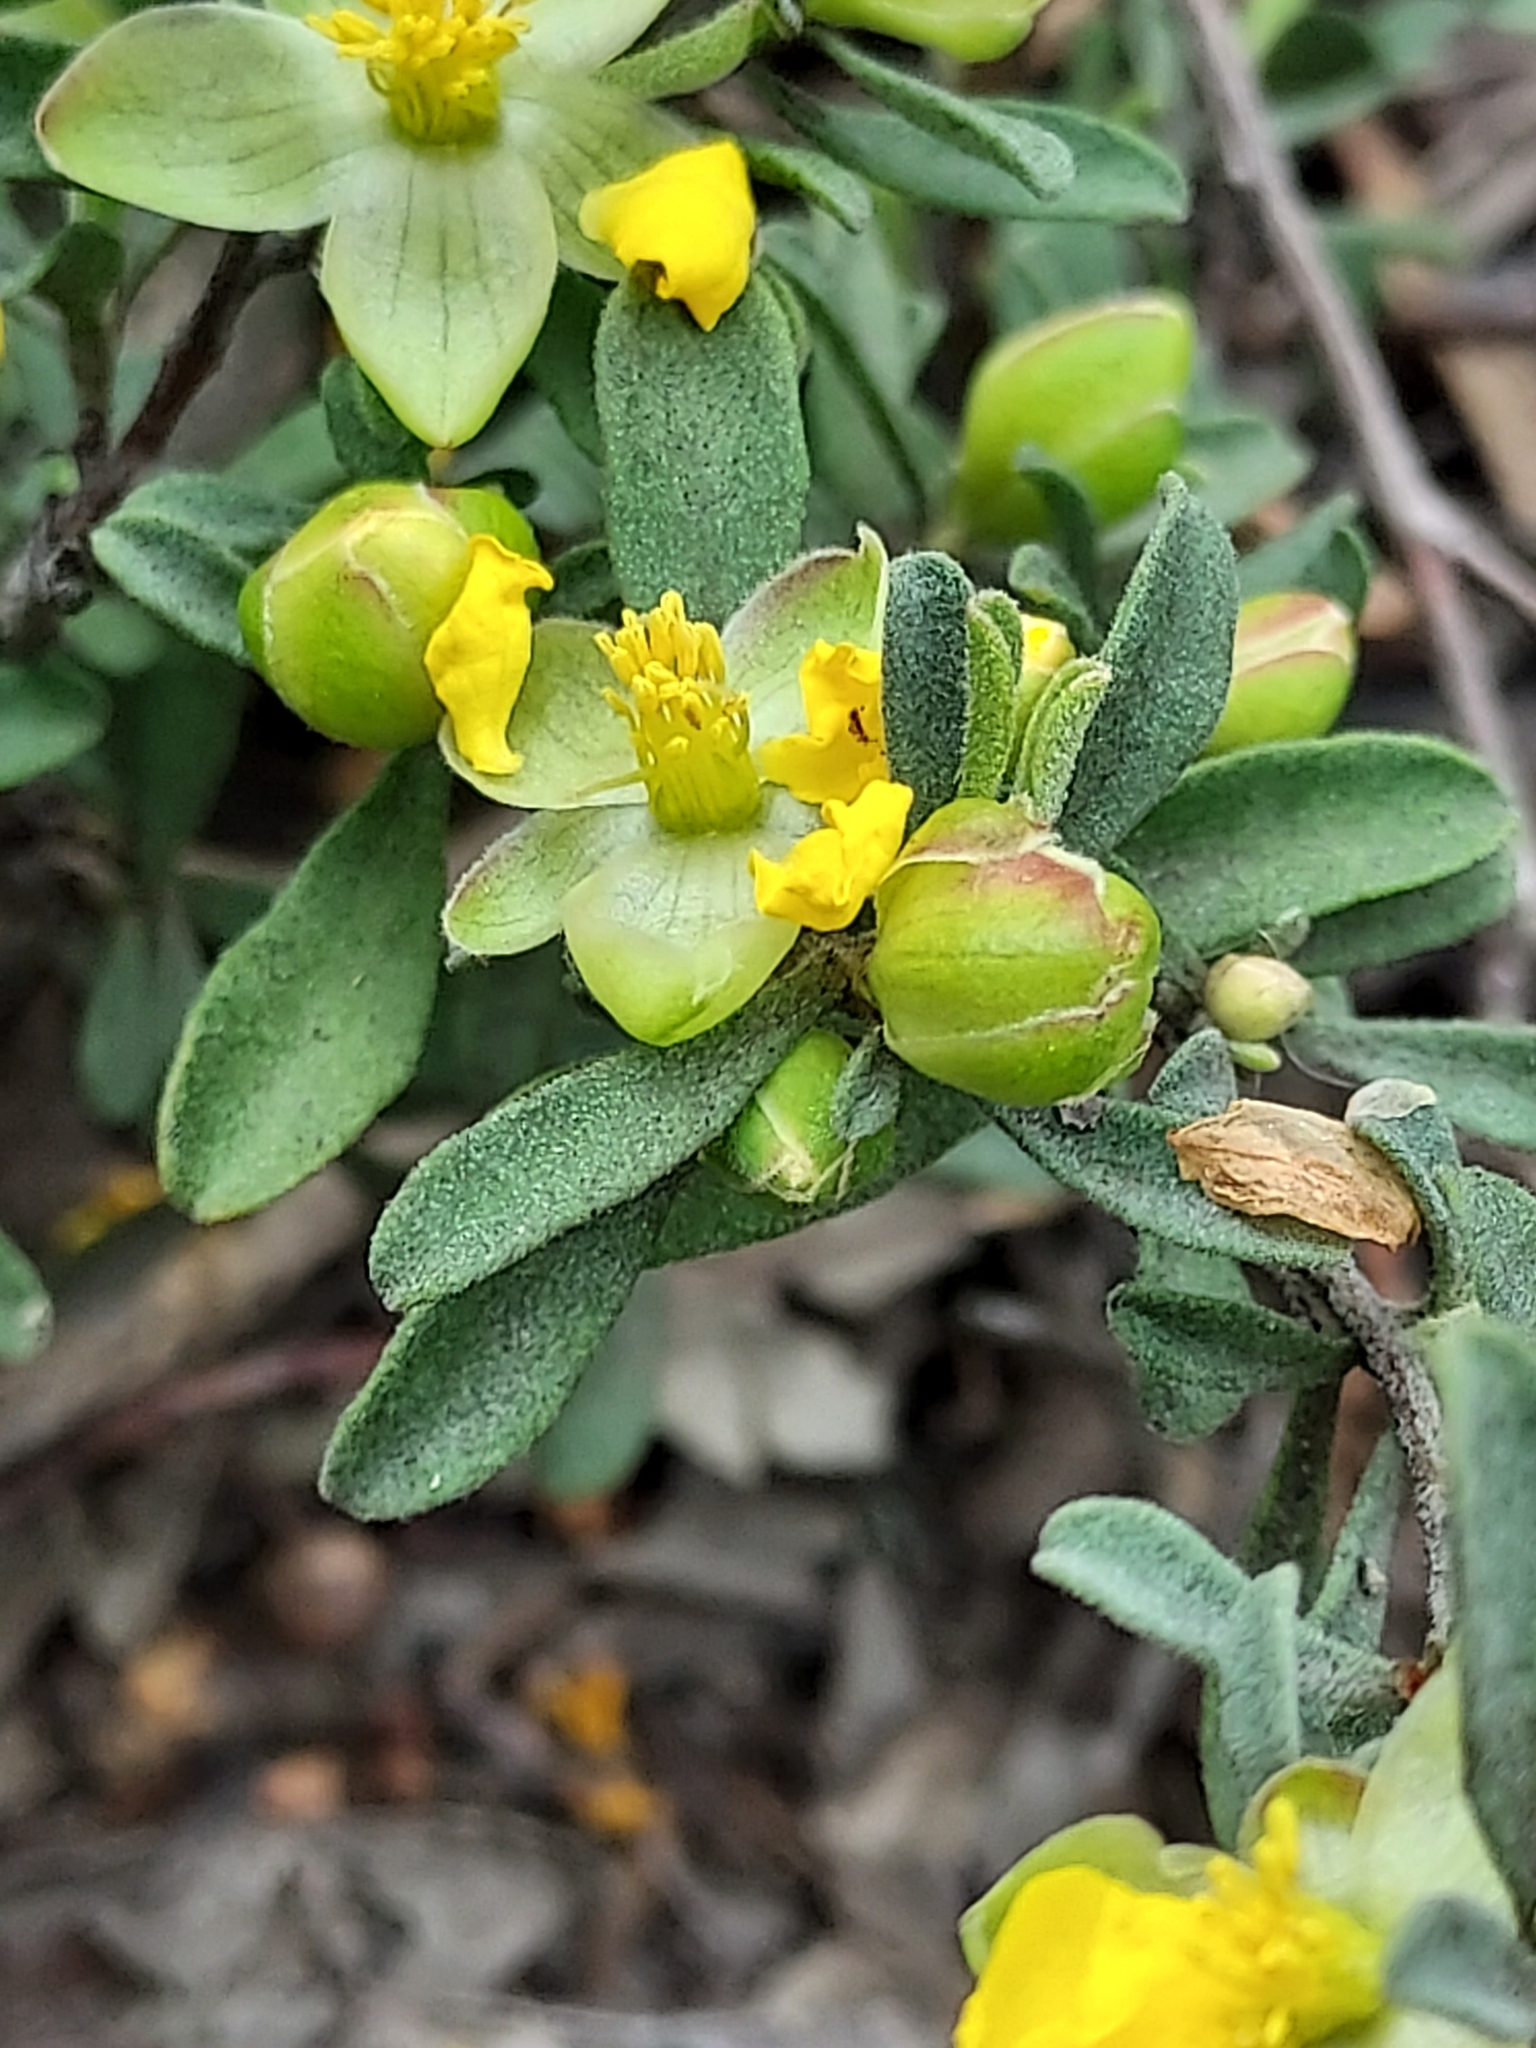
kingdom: Plantae
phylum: Tracheophyta
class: Magnoliopsida
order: Dilleniales
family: Dilleniaceae
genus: Hibbertia
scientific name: Hibbertia obtusifolia
